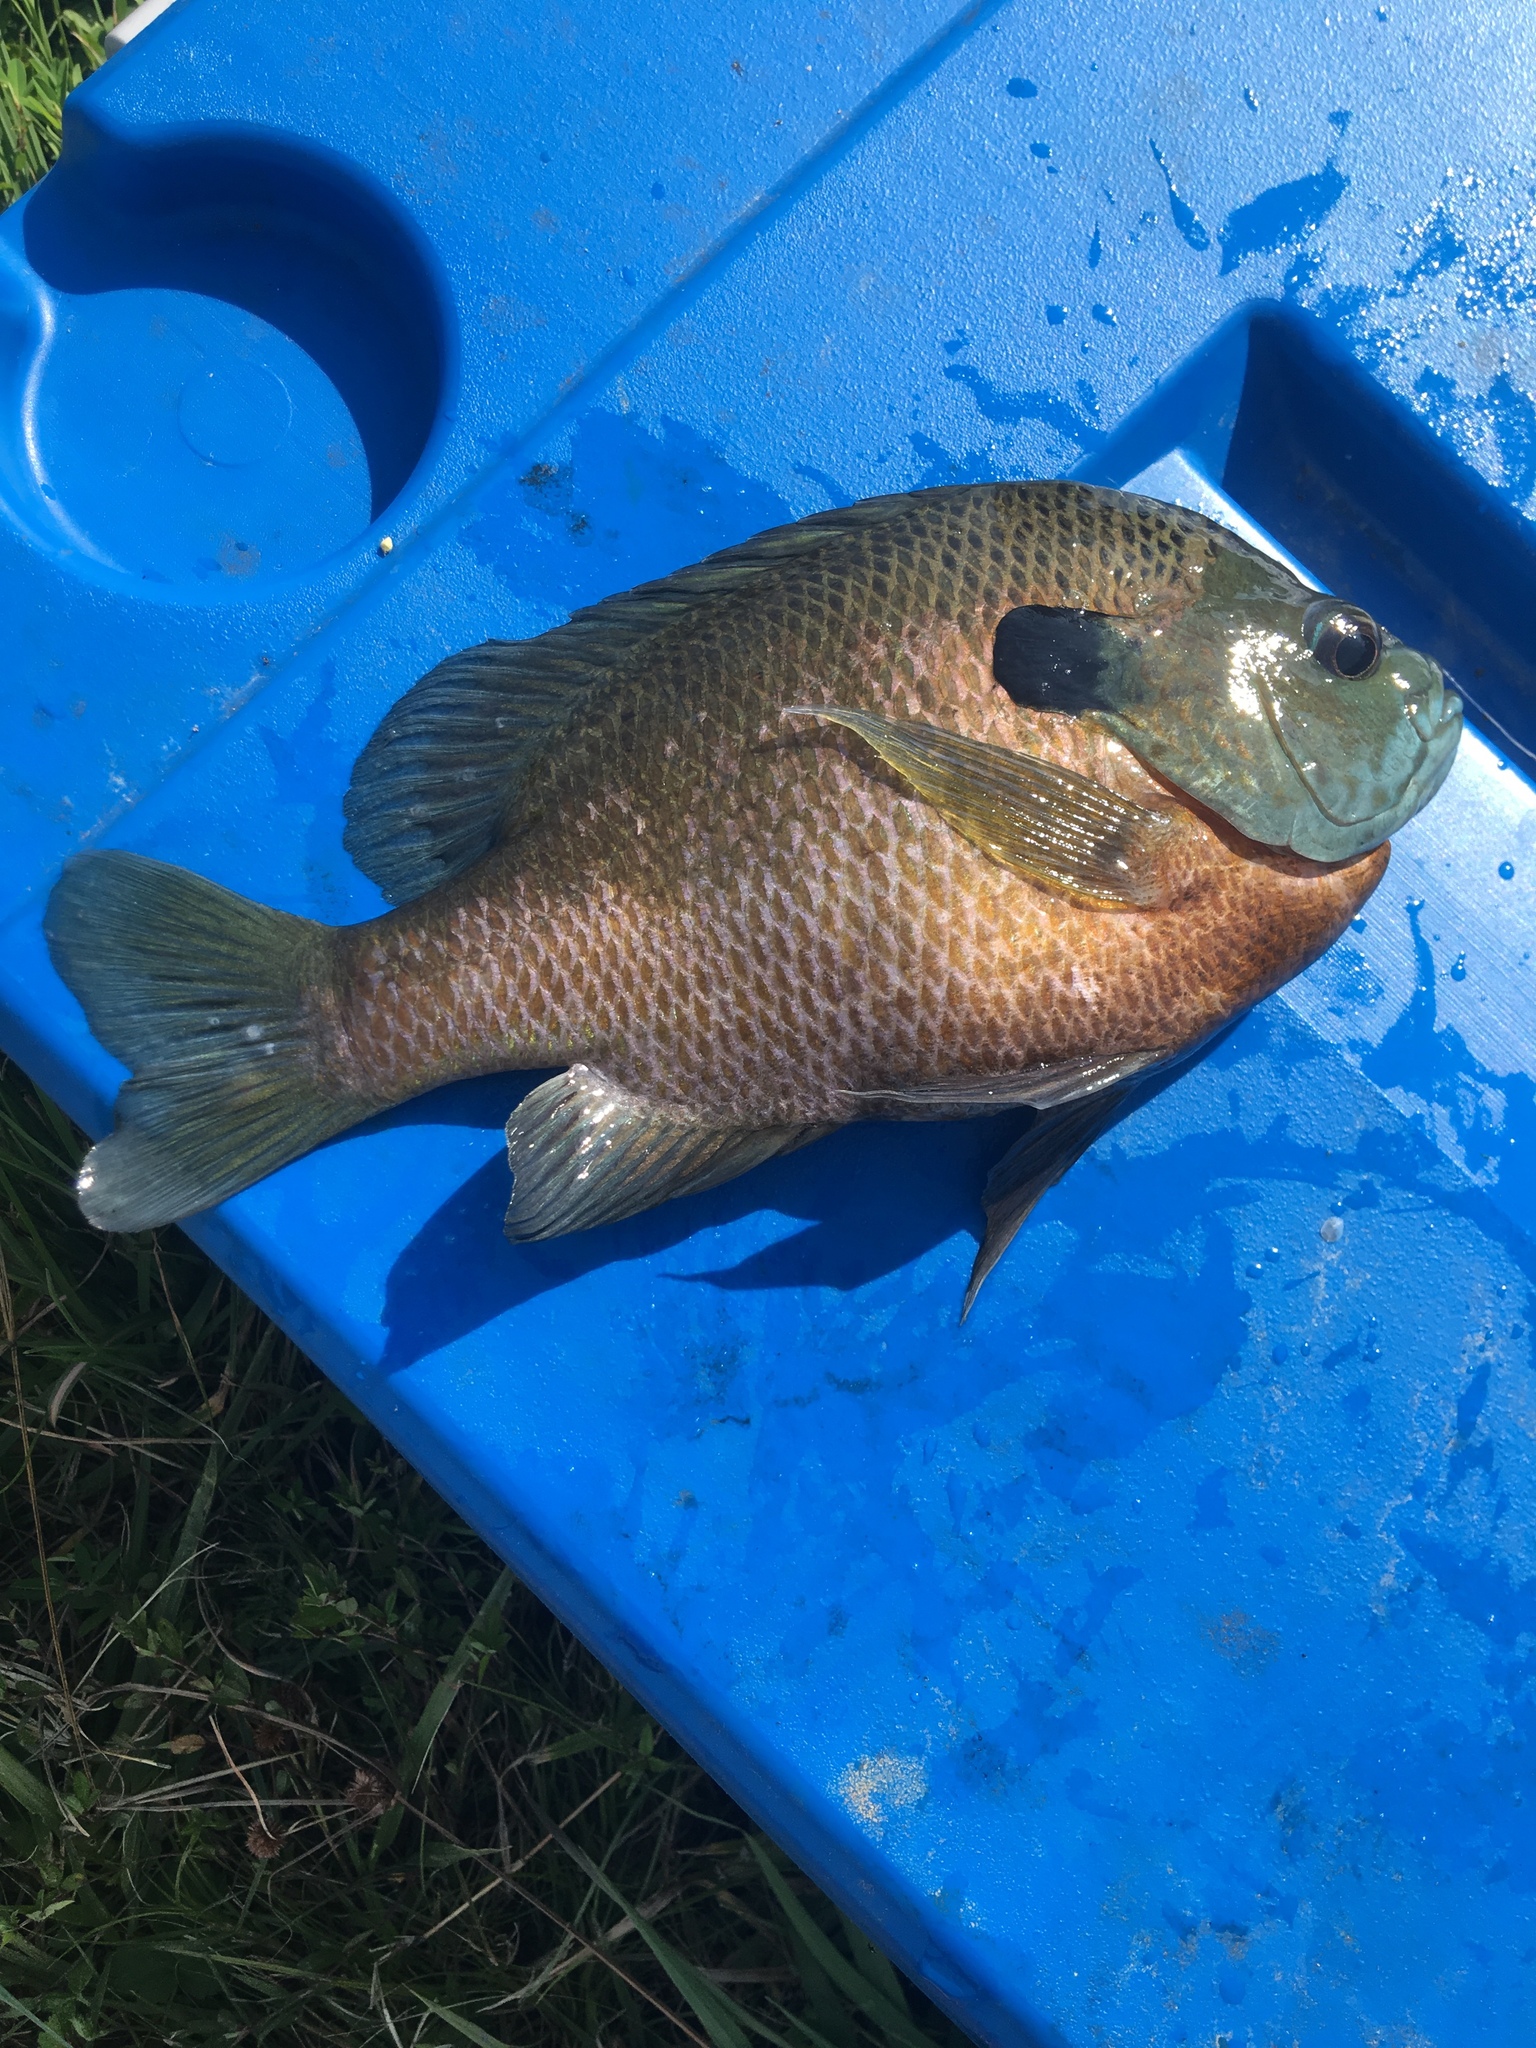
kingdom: Animalia
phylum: Chordata
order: Perciformes
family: Centrarchidae
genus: Lepomis
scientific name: Lepomis macrochirus
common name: Bluegill
